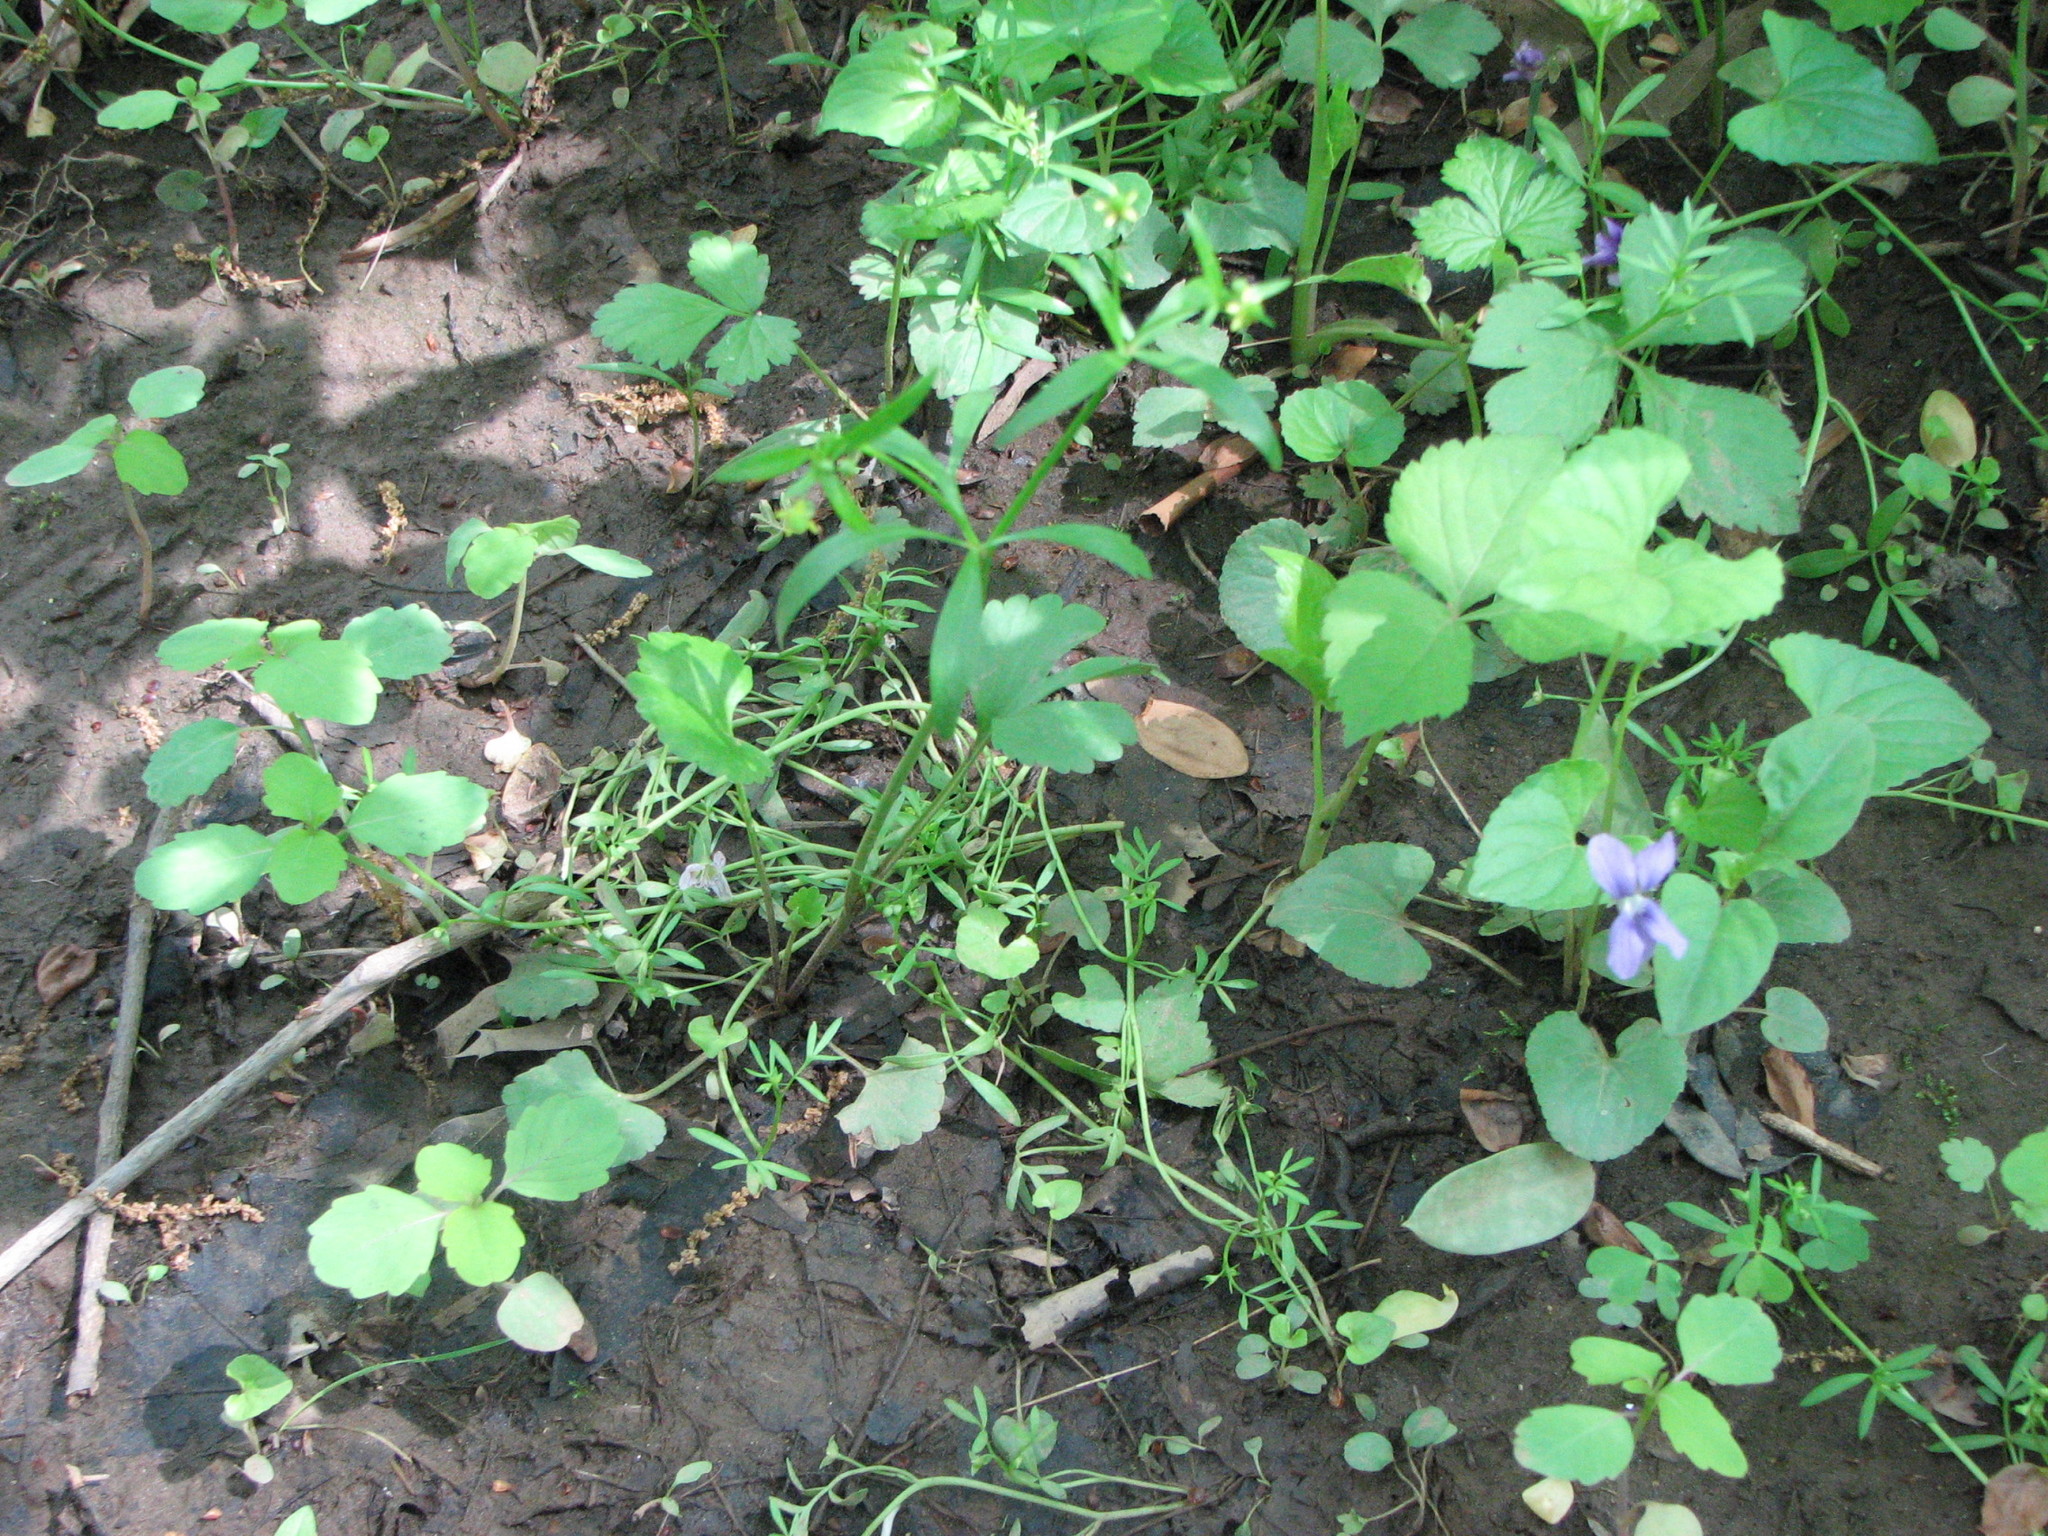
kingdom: Plantae
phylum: Tracheophyta
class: Magnoliopsida
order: Ranunculales
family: Ranunculaceae
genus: Ranunculus
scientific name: Ranunculus abortivus
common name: Early wood buttercup
